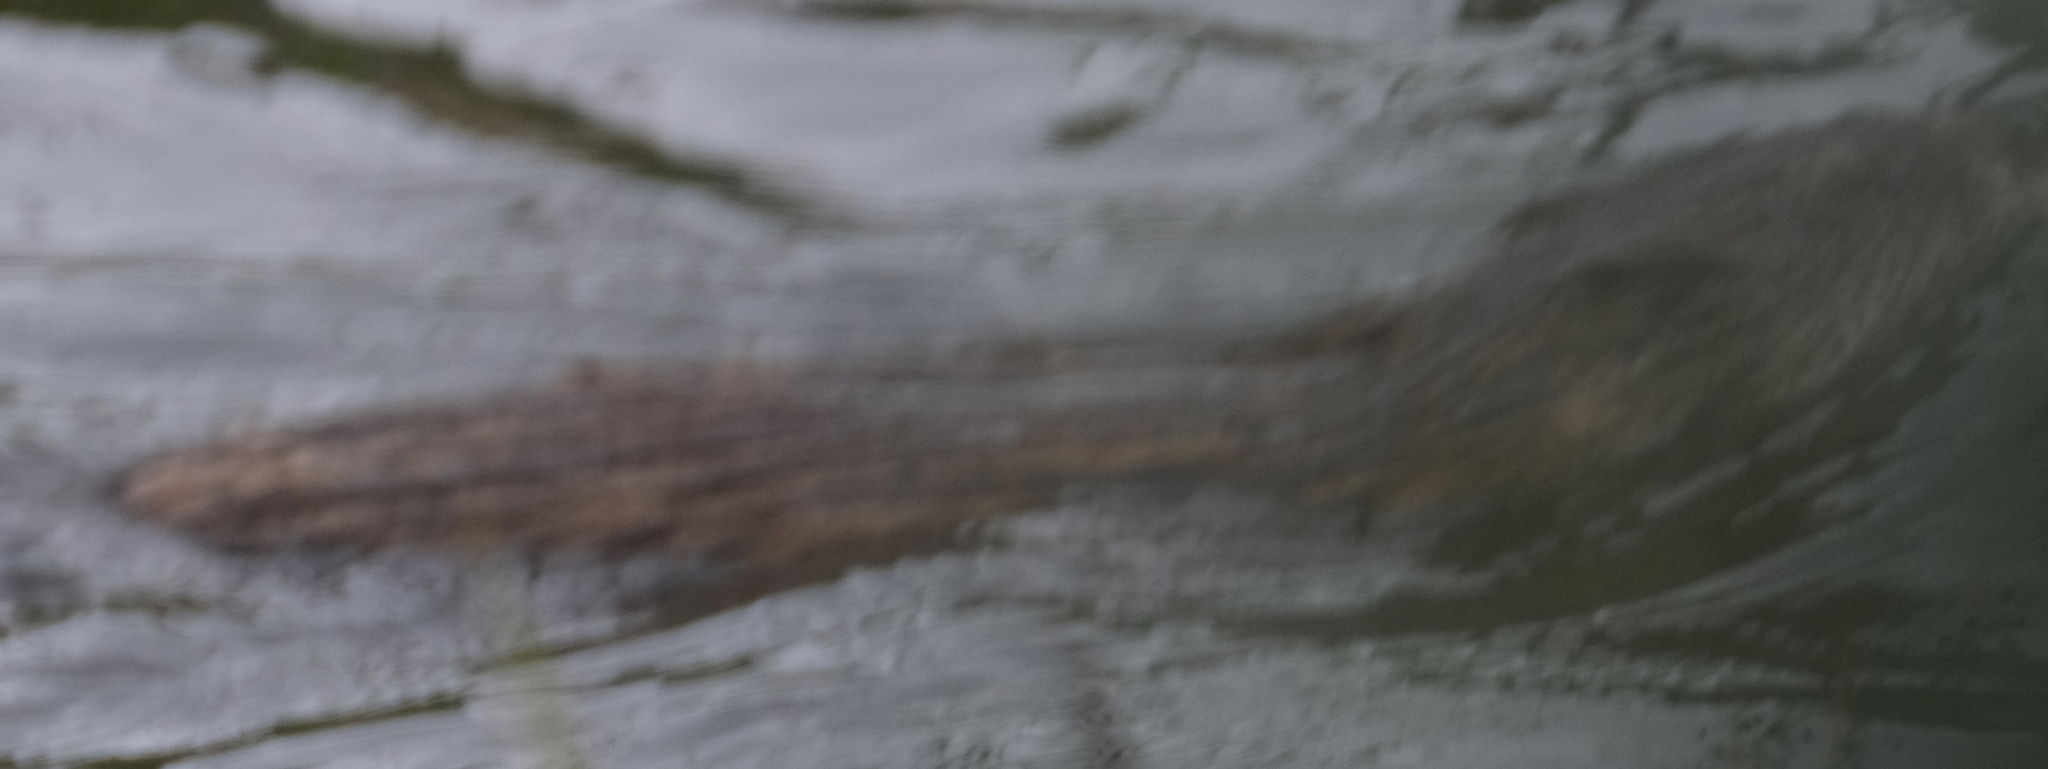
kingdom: Animalia
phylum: Chordata
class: Mammalia
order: Rodentia
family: Cricetidae
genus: Ondatra
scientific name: Ondatra zibethicus
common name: Muskrat
